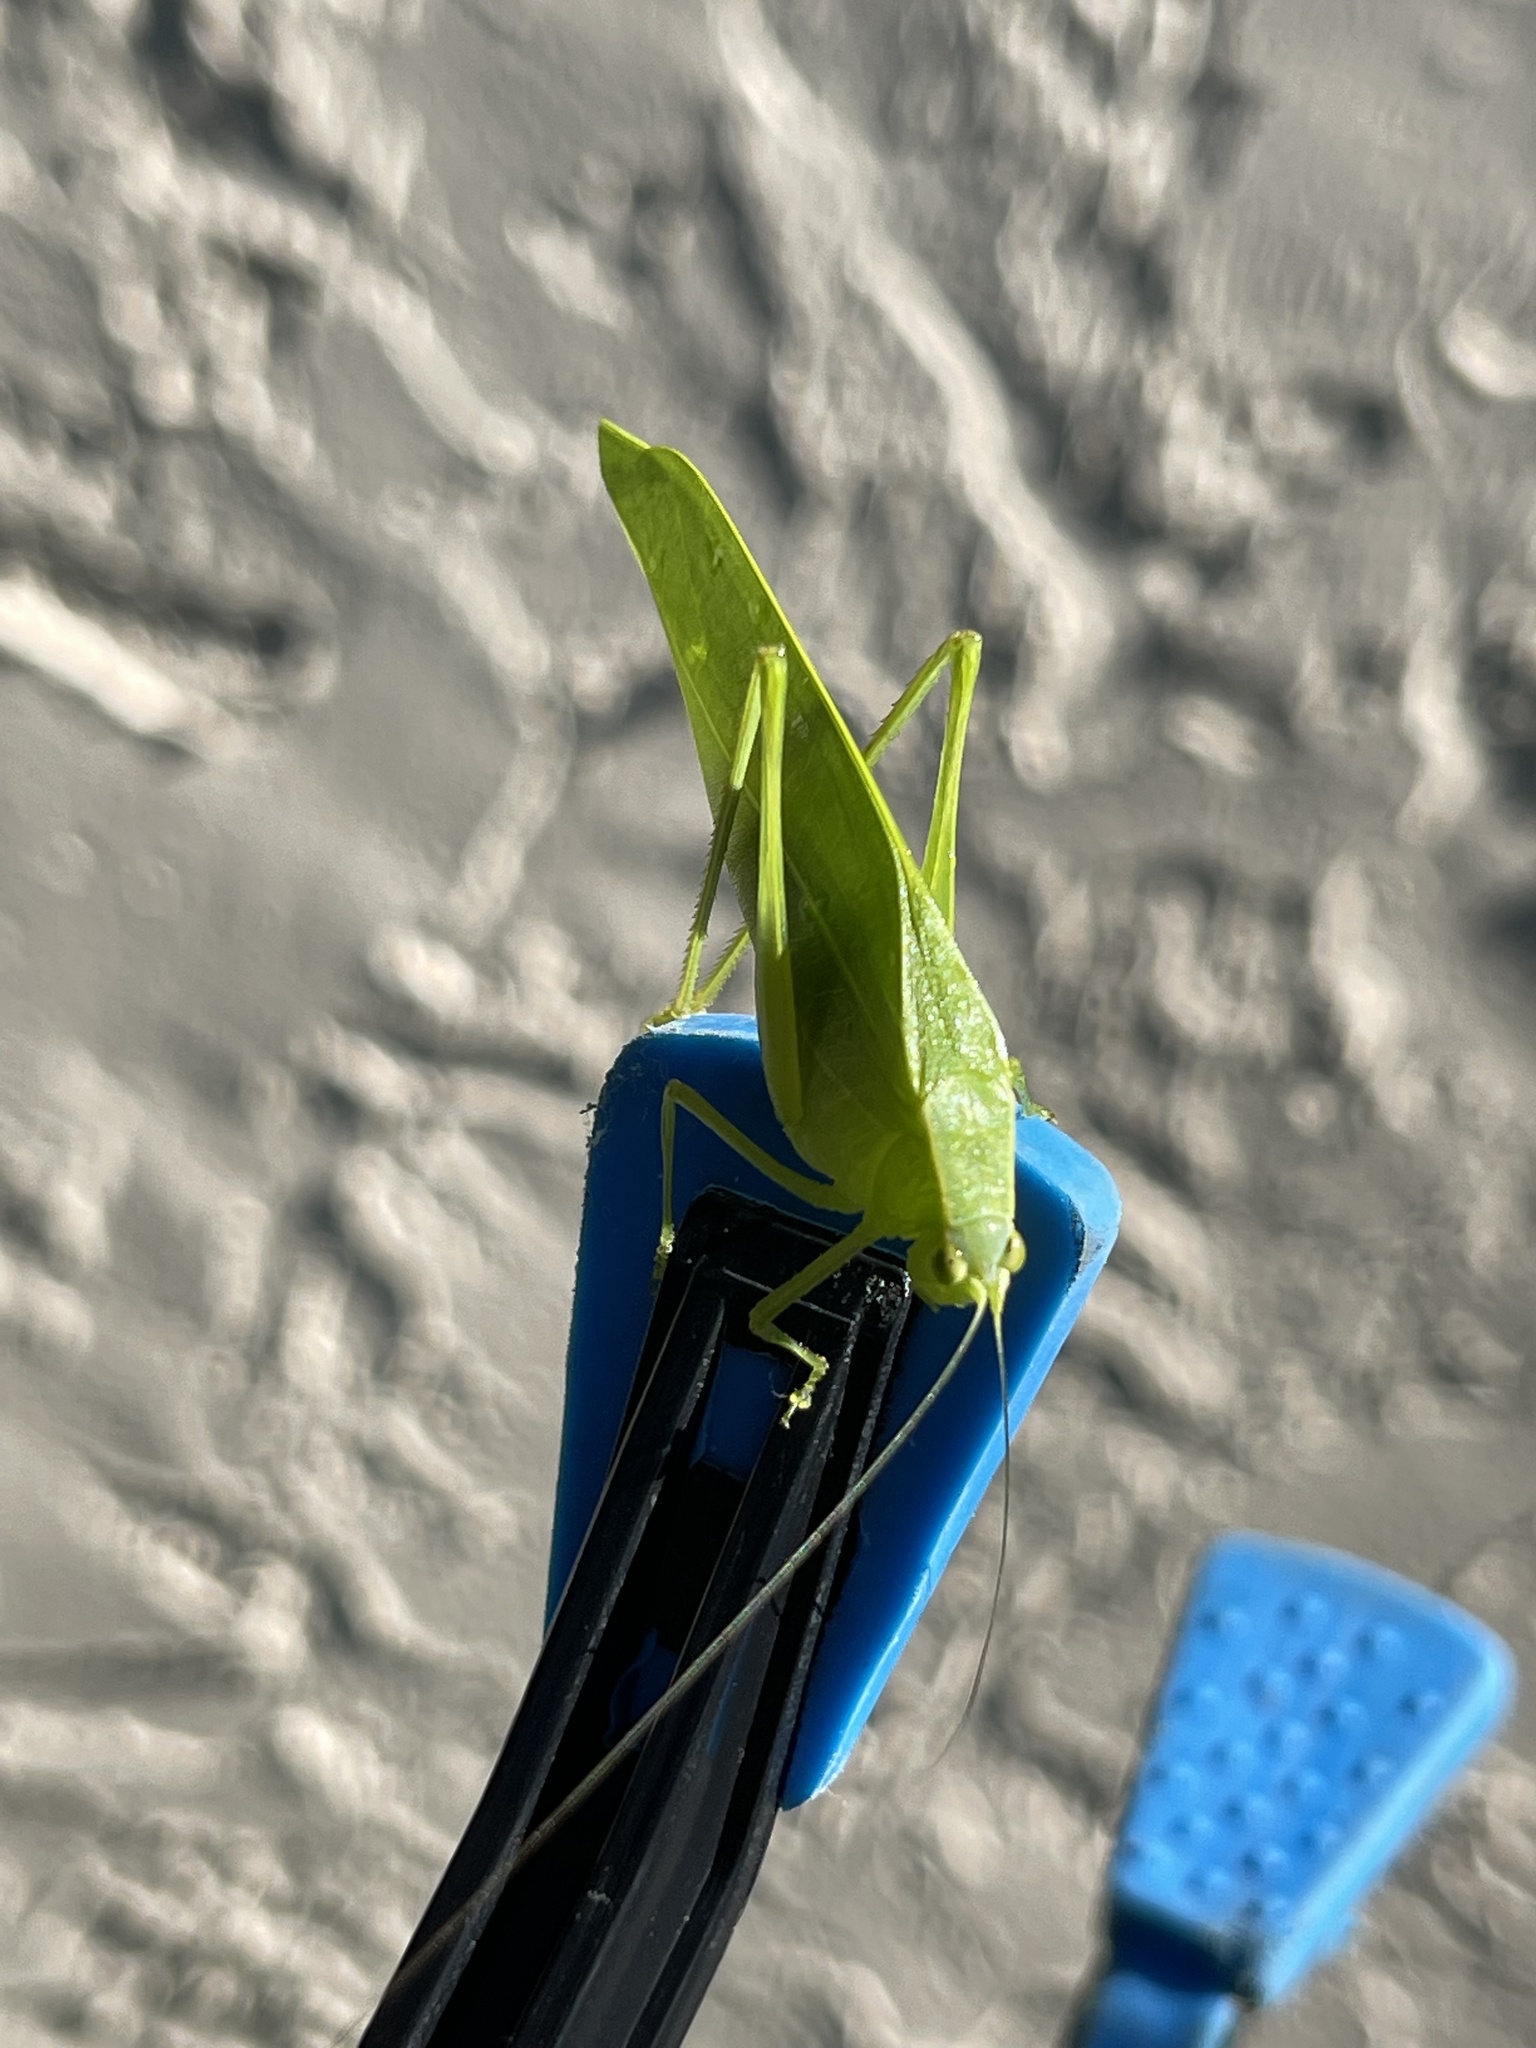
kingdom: Animalia
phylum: Arthropoda
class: Insecta
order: Orthoptera
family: Tettigoniidae
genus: Turpilia
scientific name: Turpilia rostrata
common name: Narrow-beaked katydid
